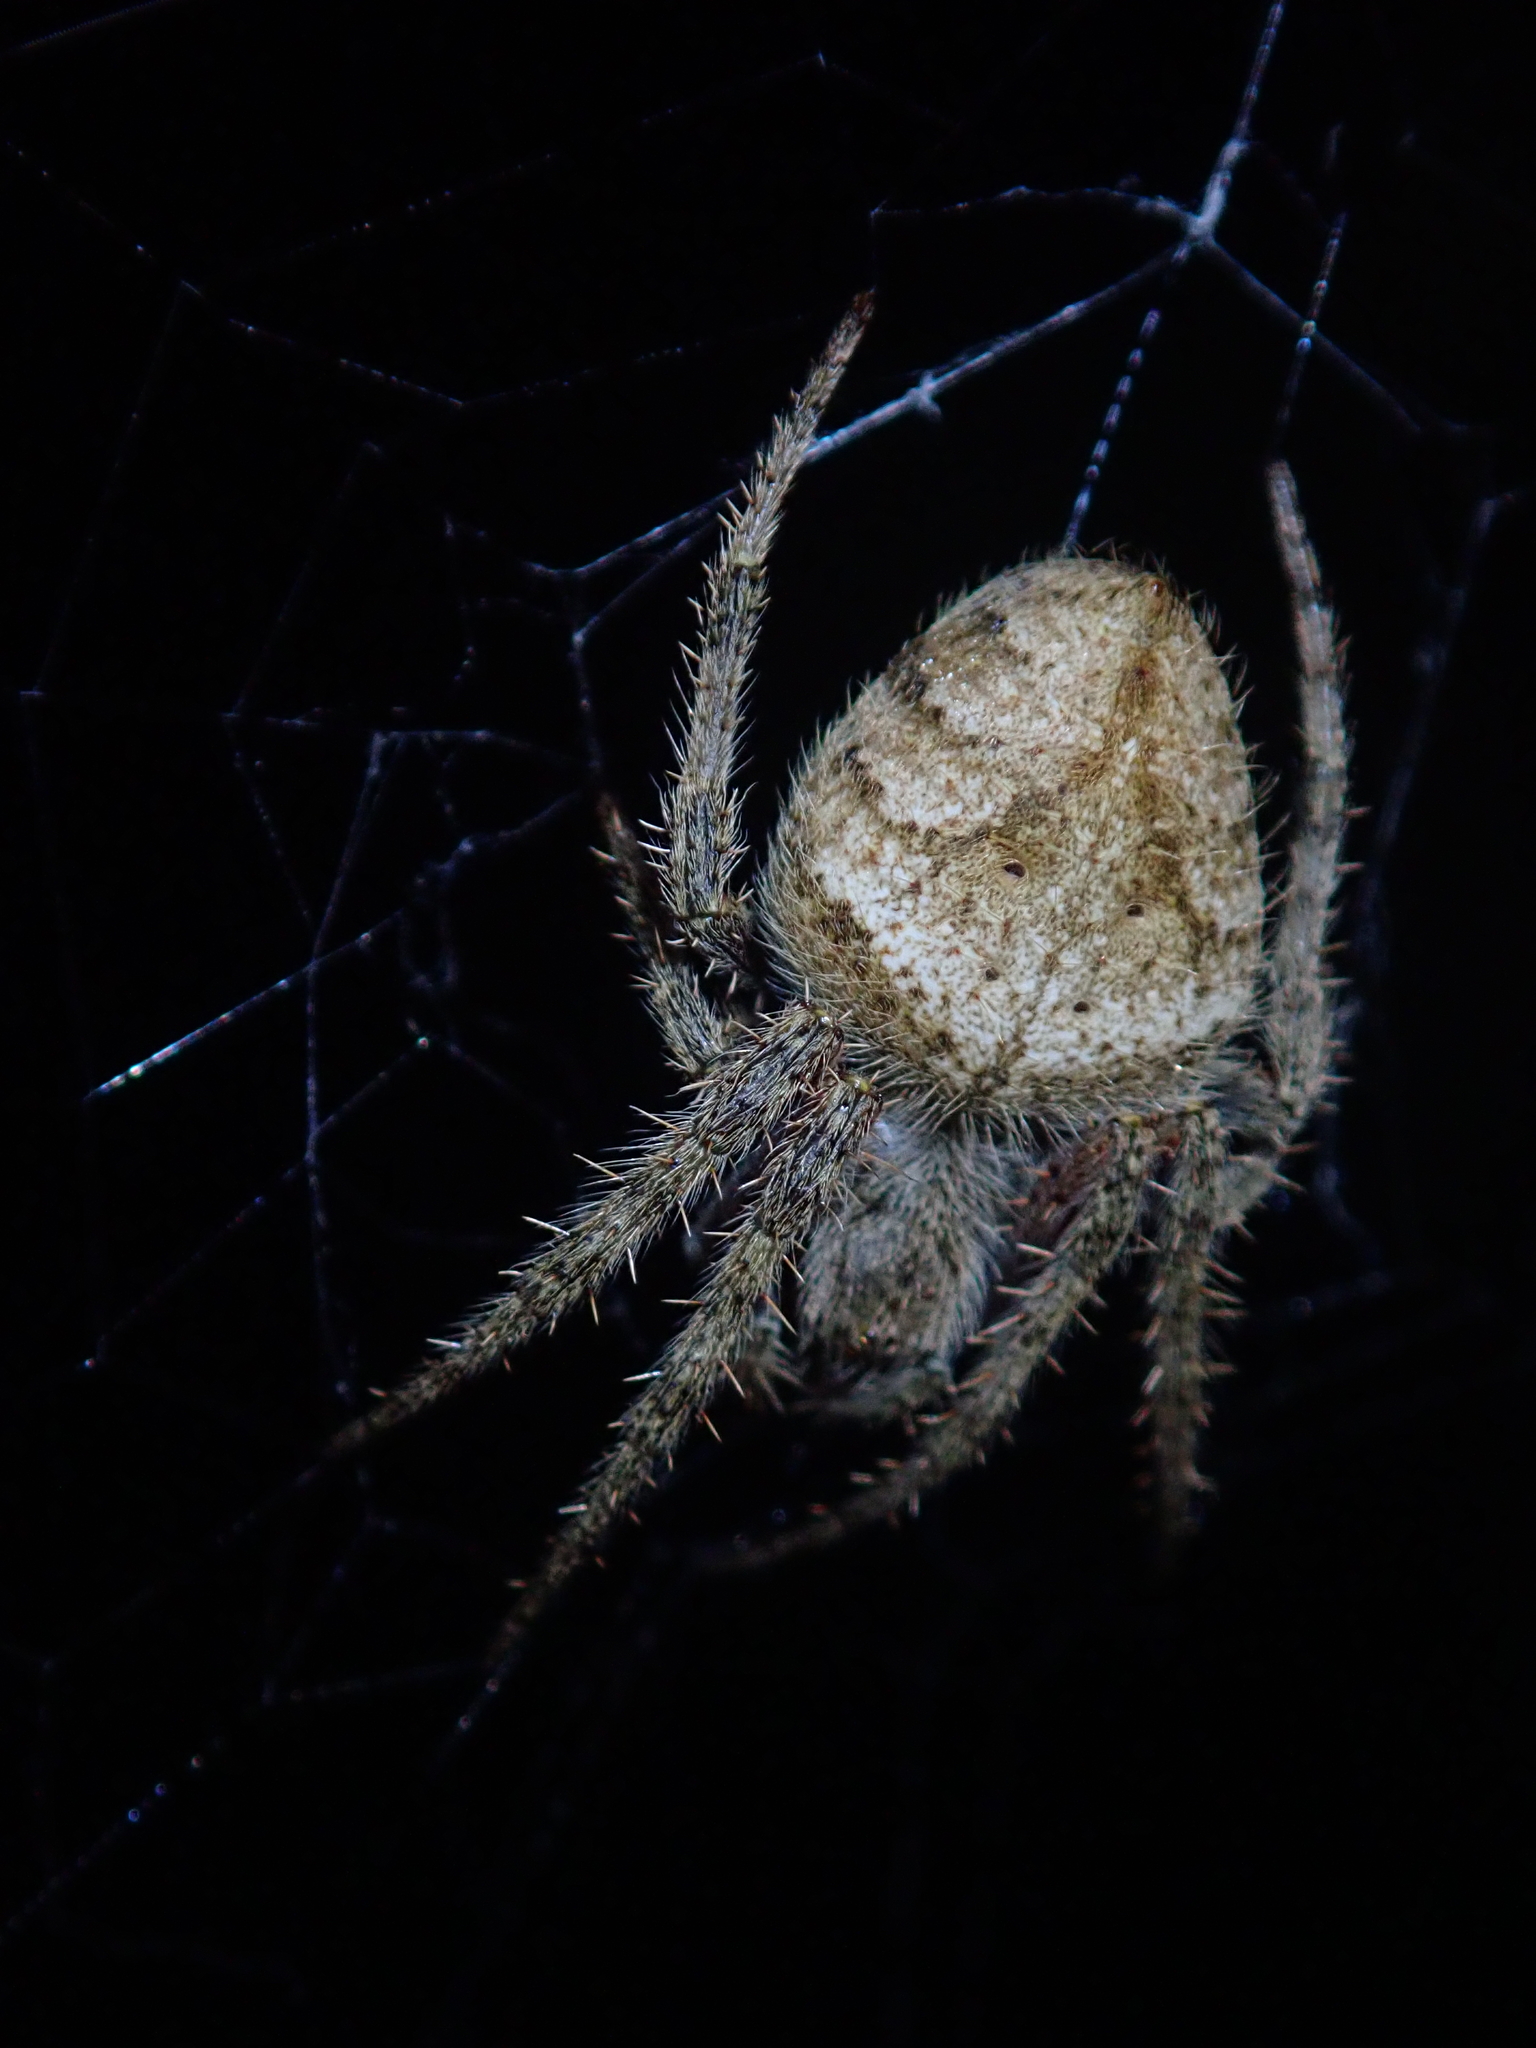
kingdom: Animalia
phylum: Arthropoda
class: Arachnida
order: Araneae
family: Araneidae
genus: Eriophora
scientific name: Eriophora edax
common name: Orb weavers
